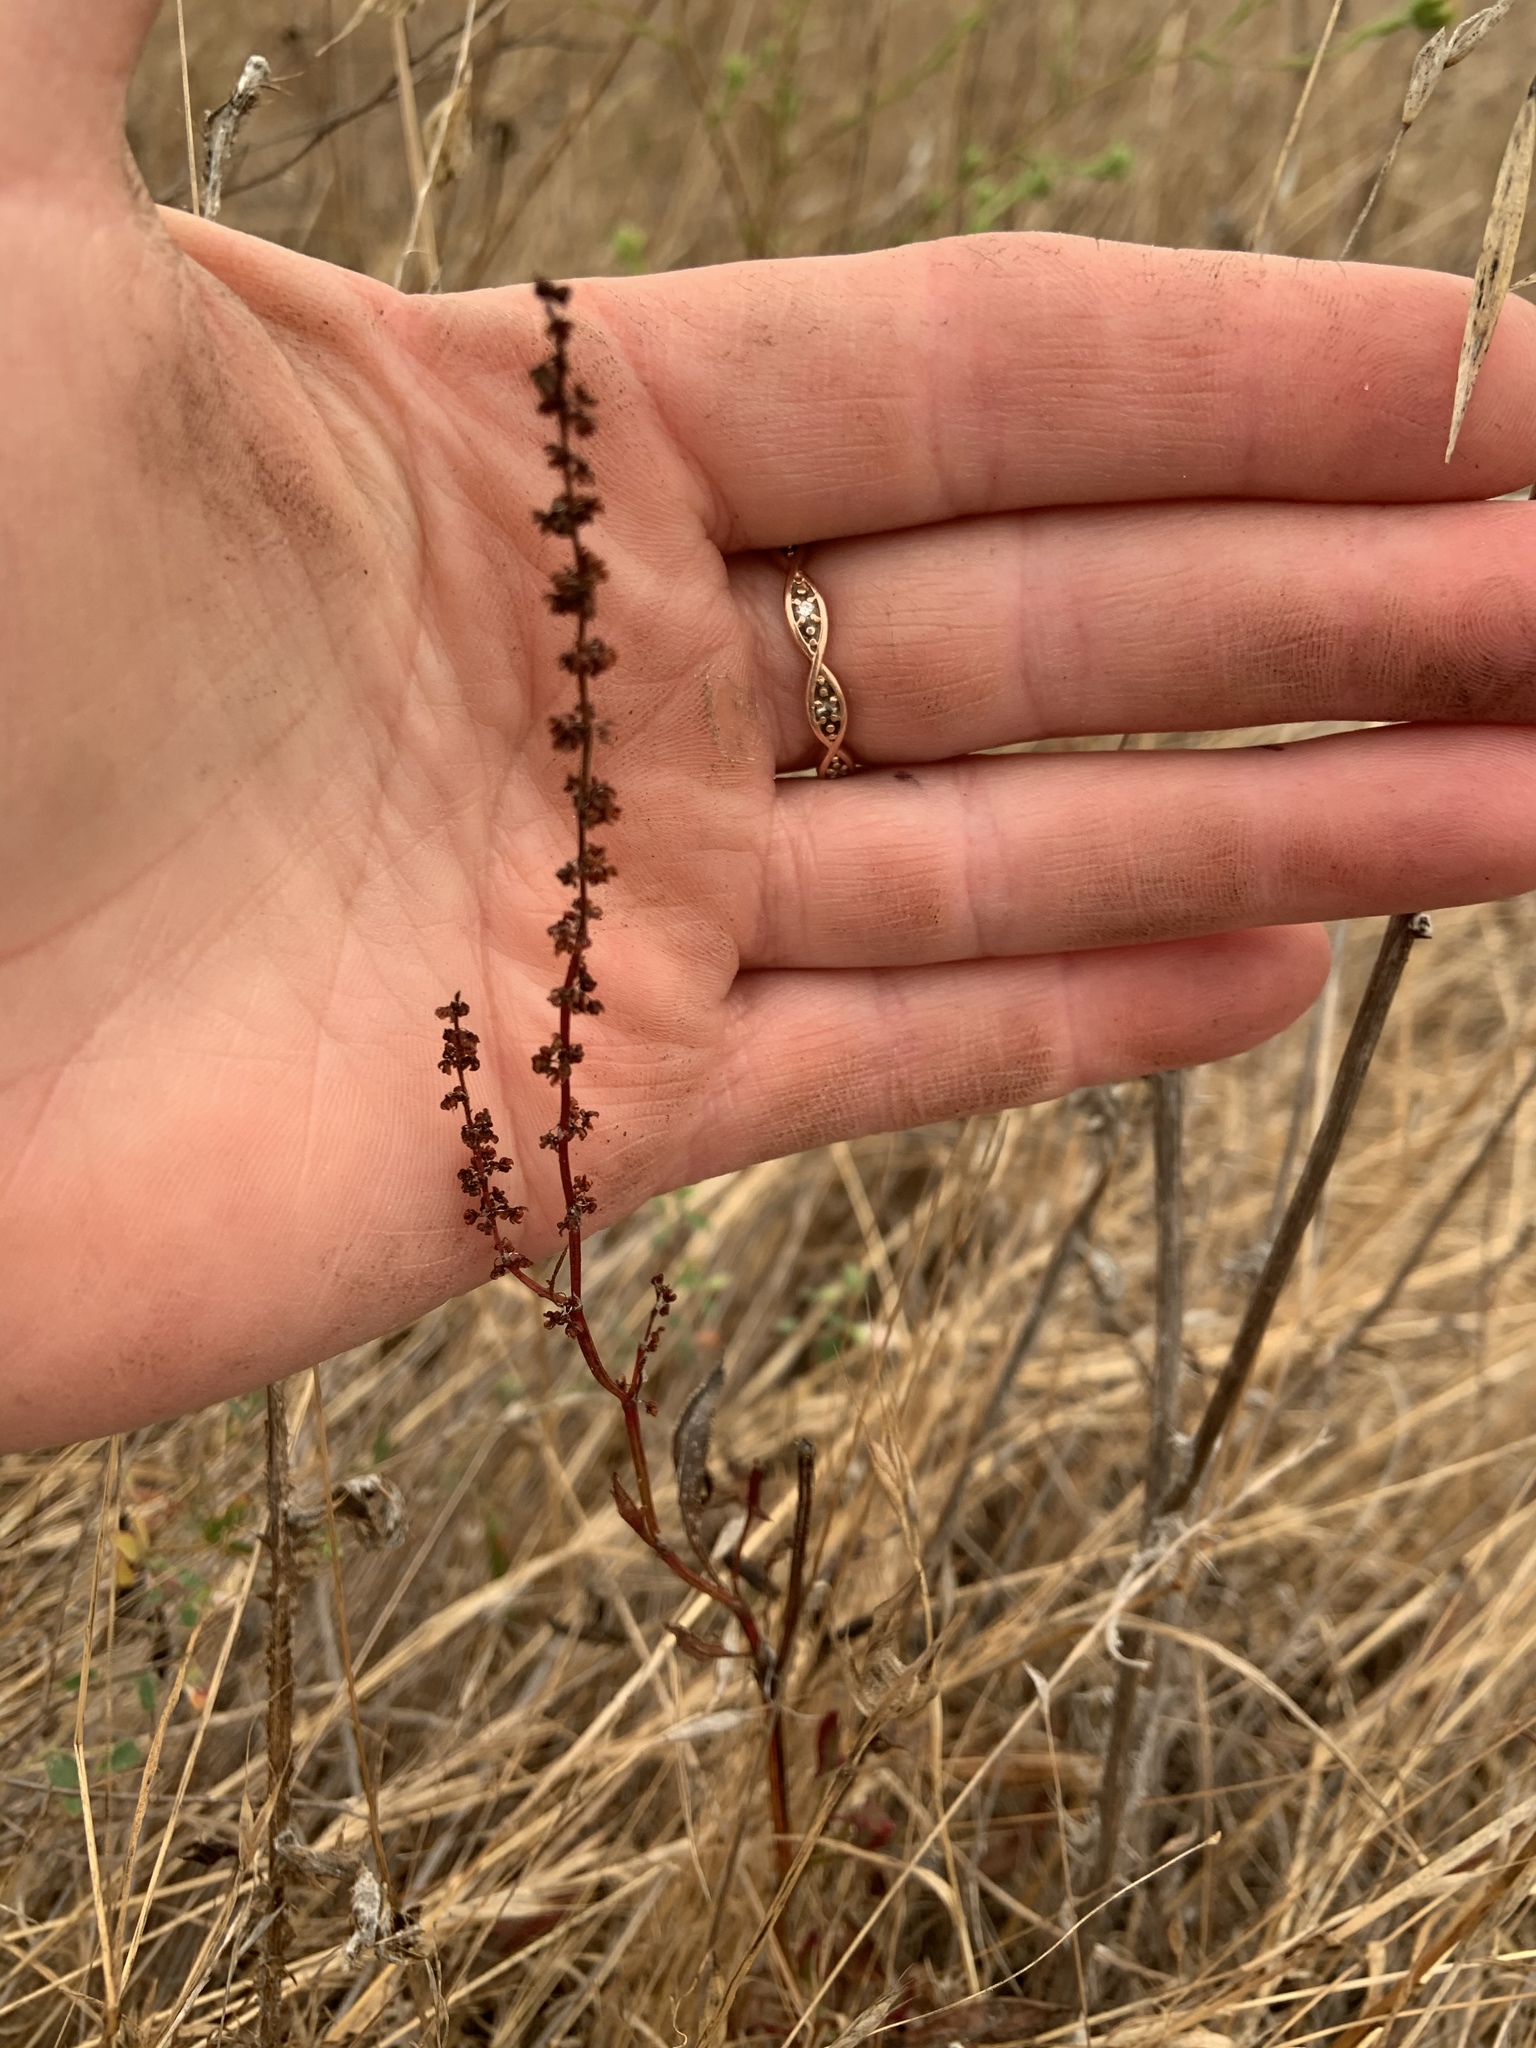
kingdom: Plantae
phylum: Tracheophyta
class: Magnoliopsida
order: Caryophyllales
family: Polygonaceae
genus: Rumex
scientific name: Rumex acetosella
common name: Common sheep sorrel
